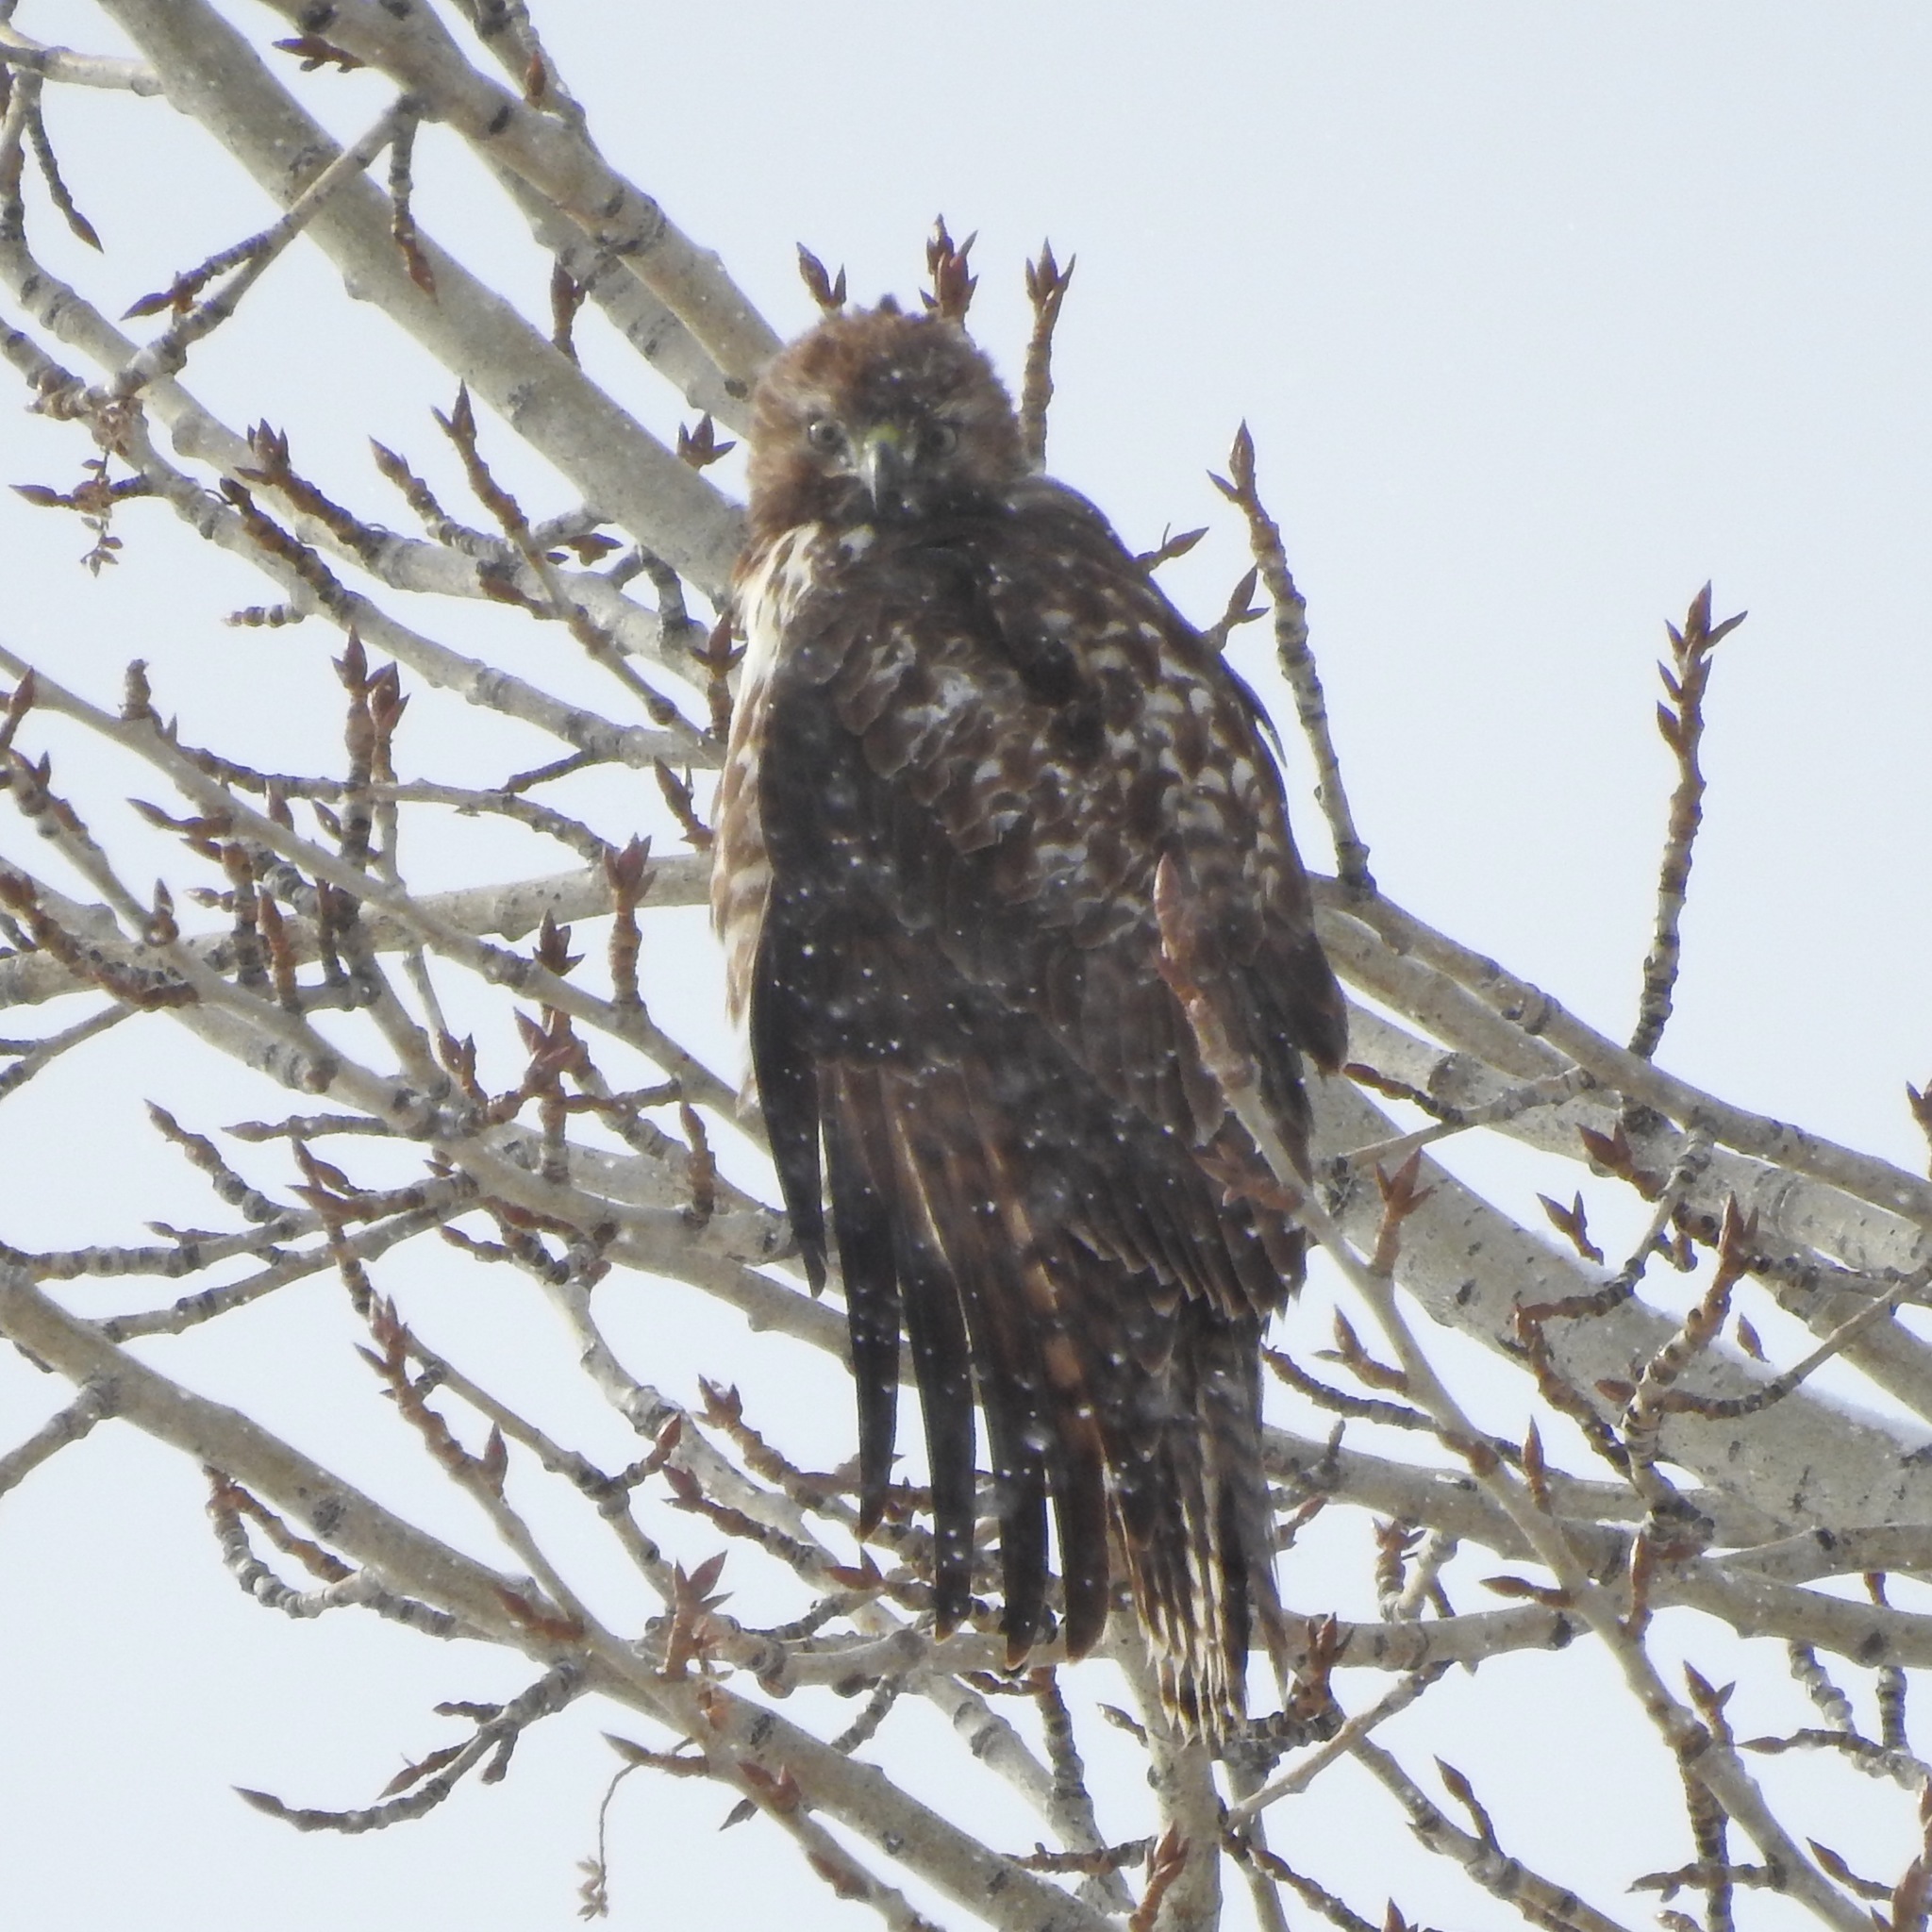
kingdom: Animalia
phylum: Chordata
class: Aves
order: Accipitriformes
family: Accipitridae
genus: Buteo
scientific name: Buteo jamaicensis
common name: Red-tailed hawk
